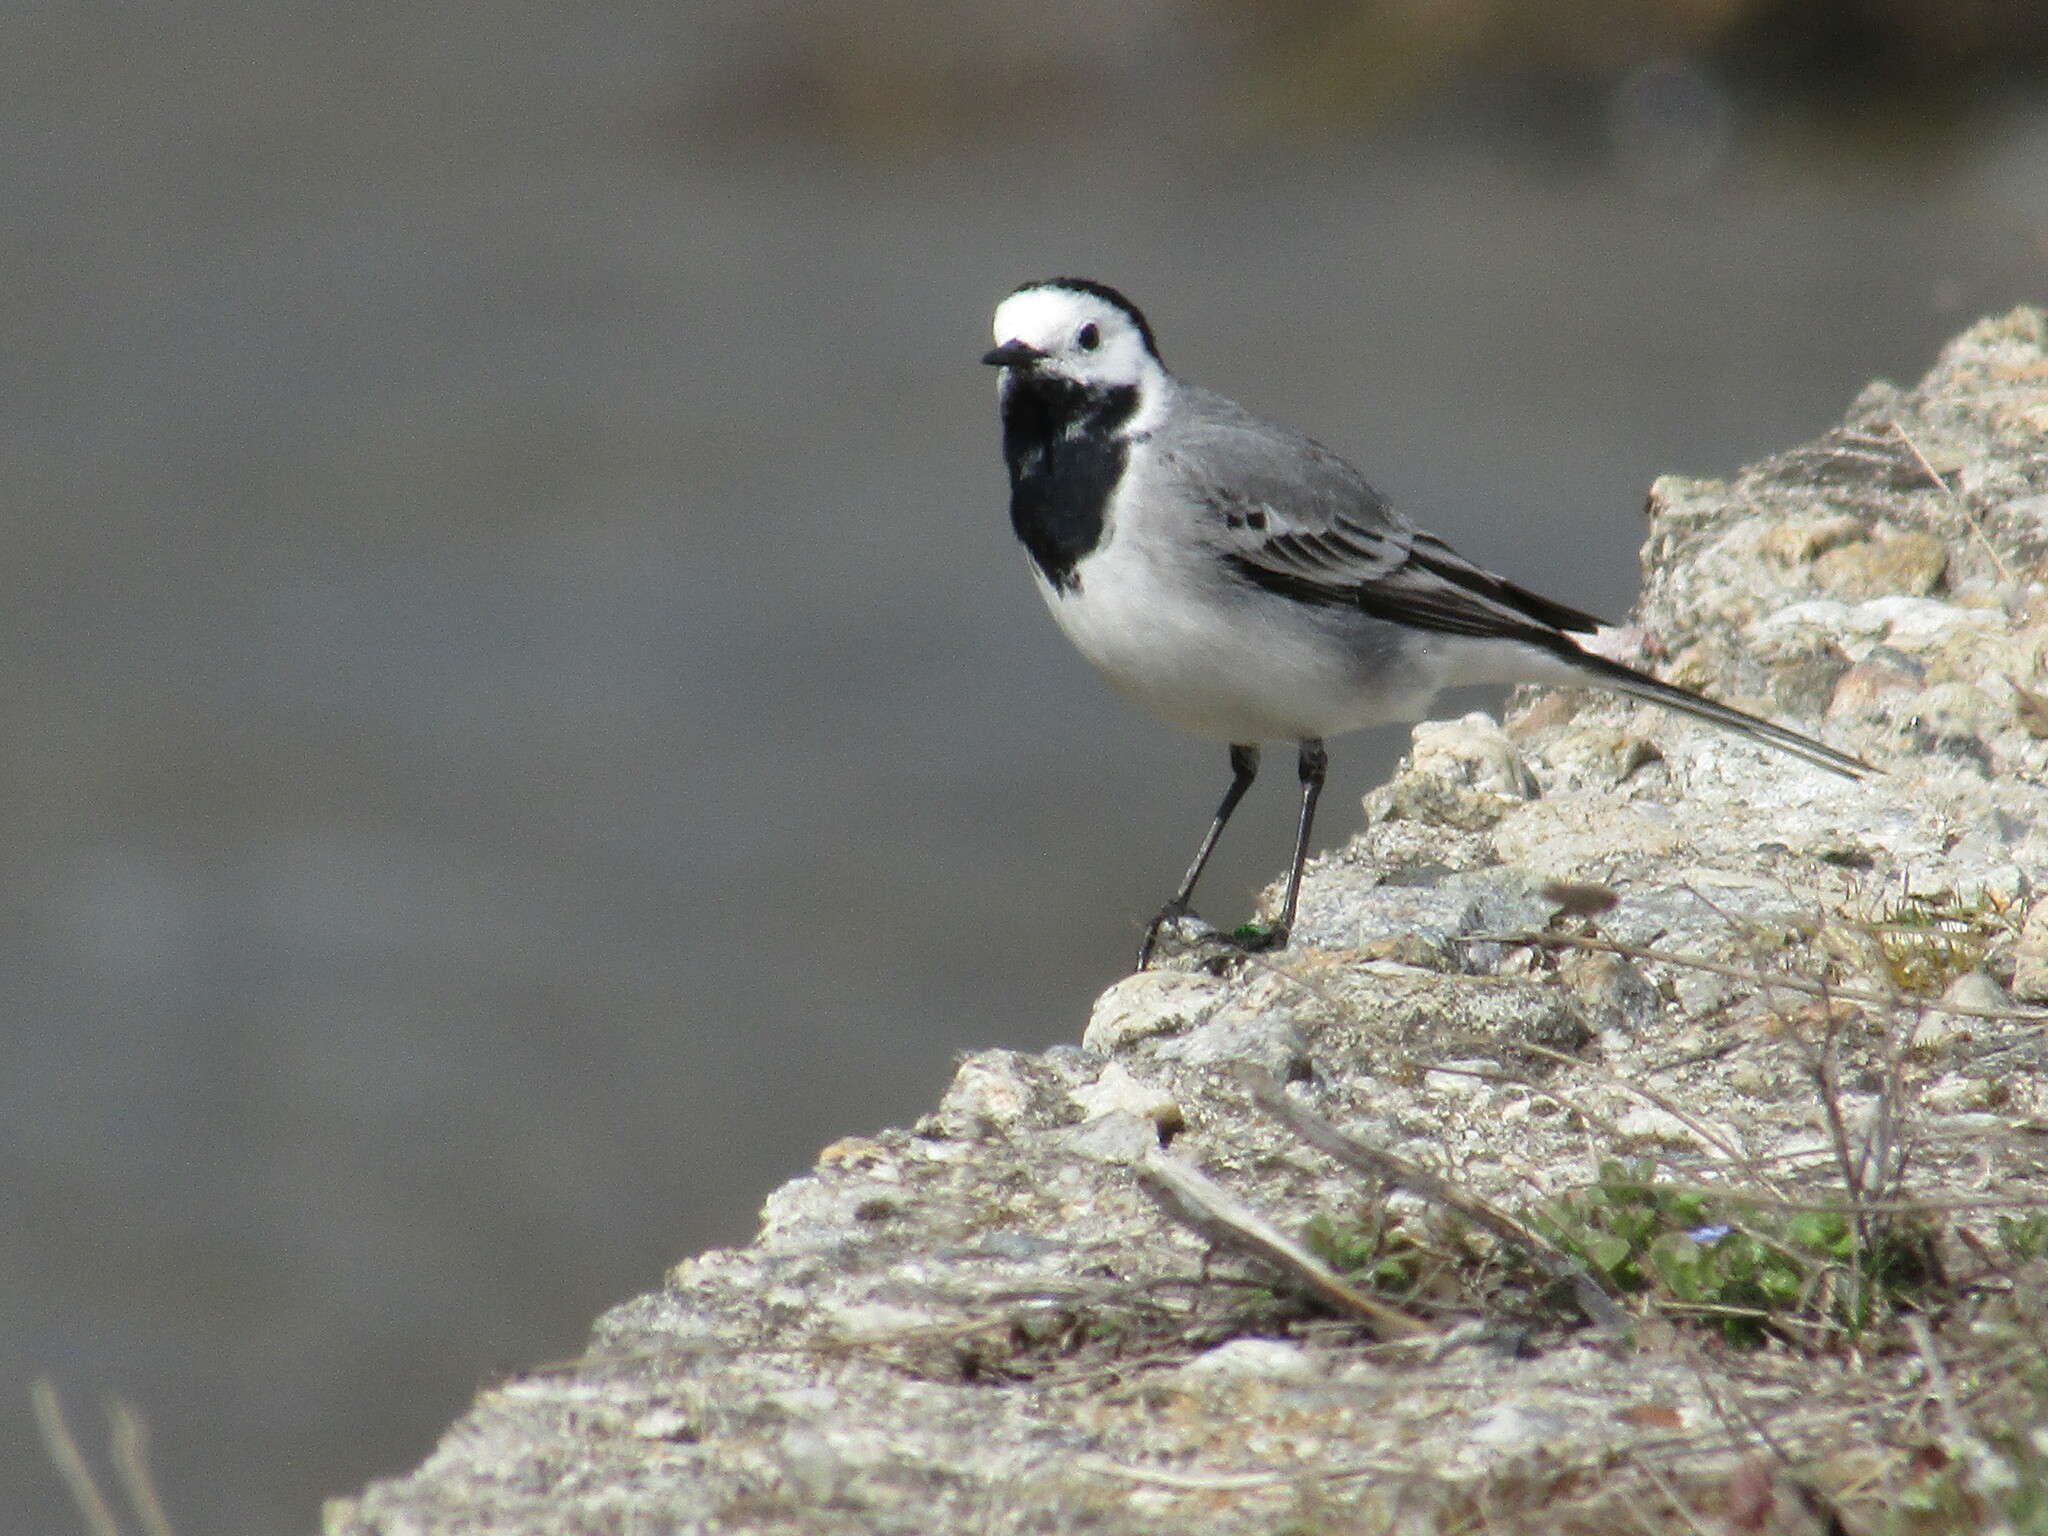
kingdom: Animalia
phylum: Chordata
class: Aves
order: Passeriformes
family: Motacillidae
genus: Motacilla
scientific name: Motacilla alba
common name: White wagtail
